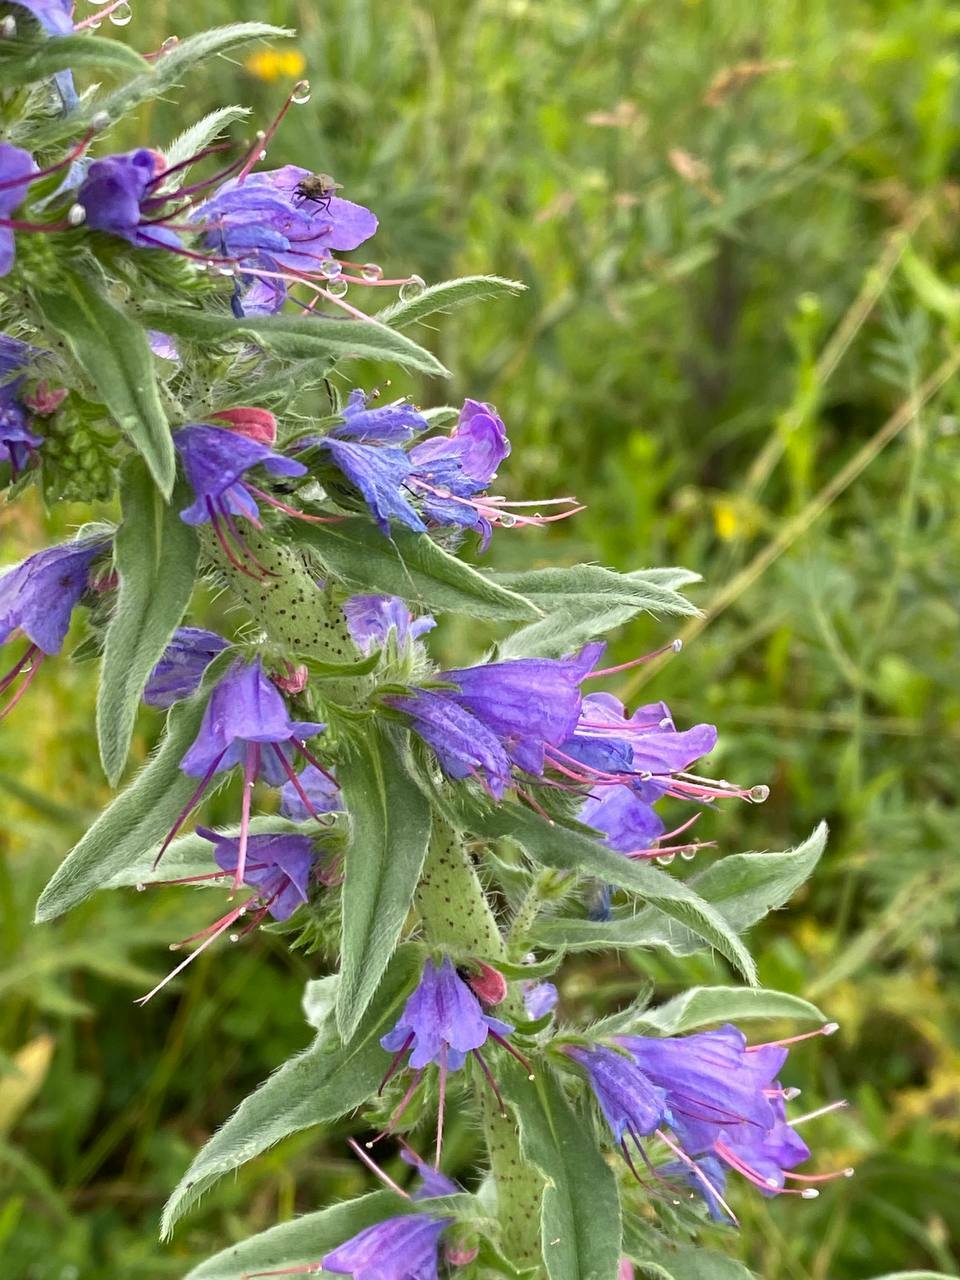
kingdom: Plantae
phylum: Tracheophyta
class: Magnoliopsida
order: Boraginales
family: Boraginaceae
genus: Echium
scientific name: Echium vulgare
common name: Common viper's bugloss
